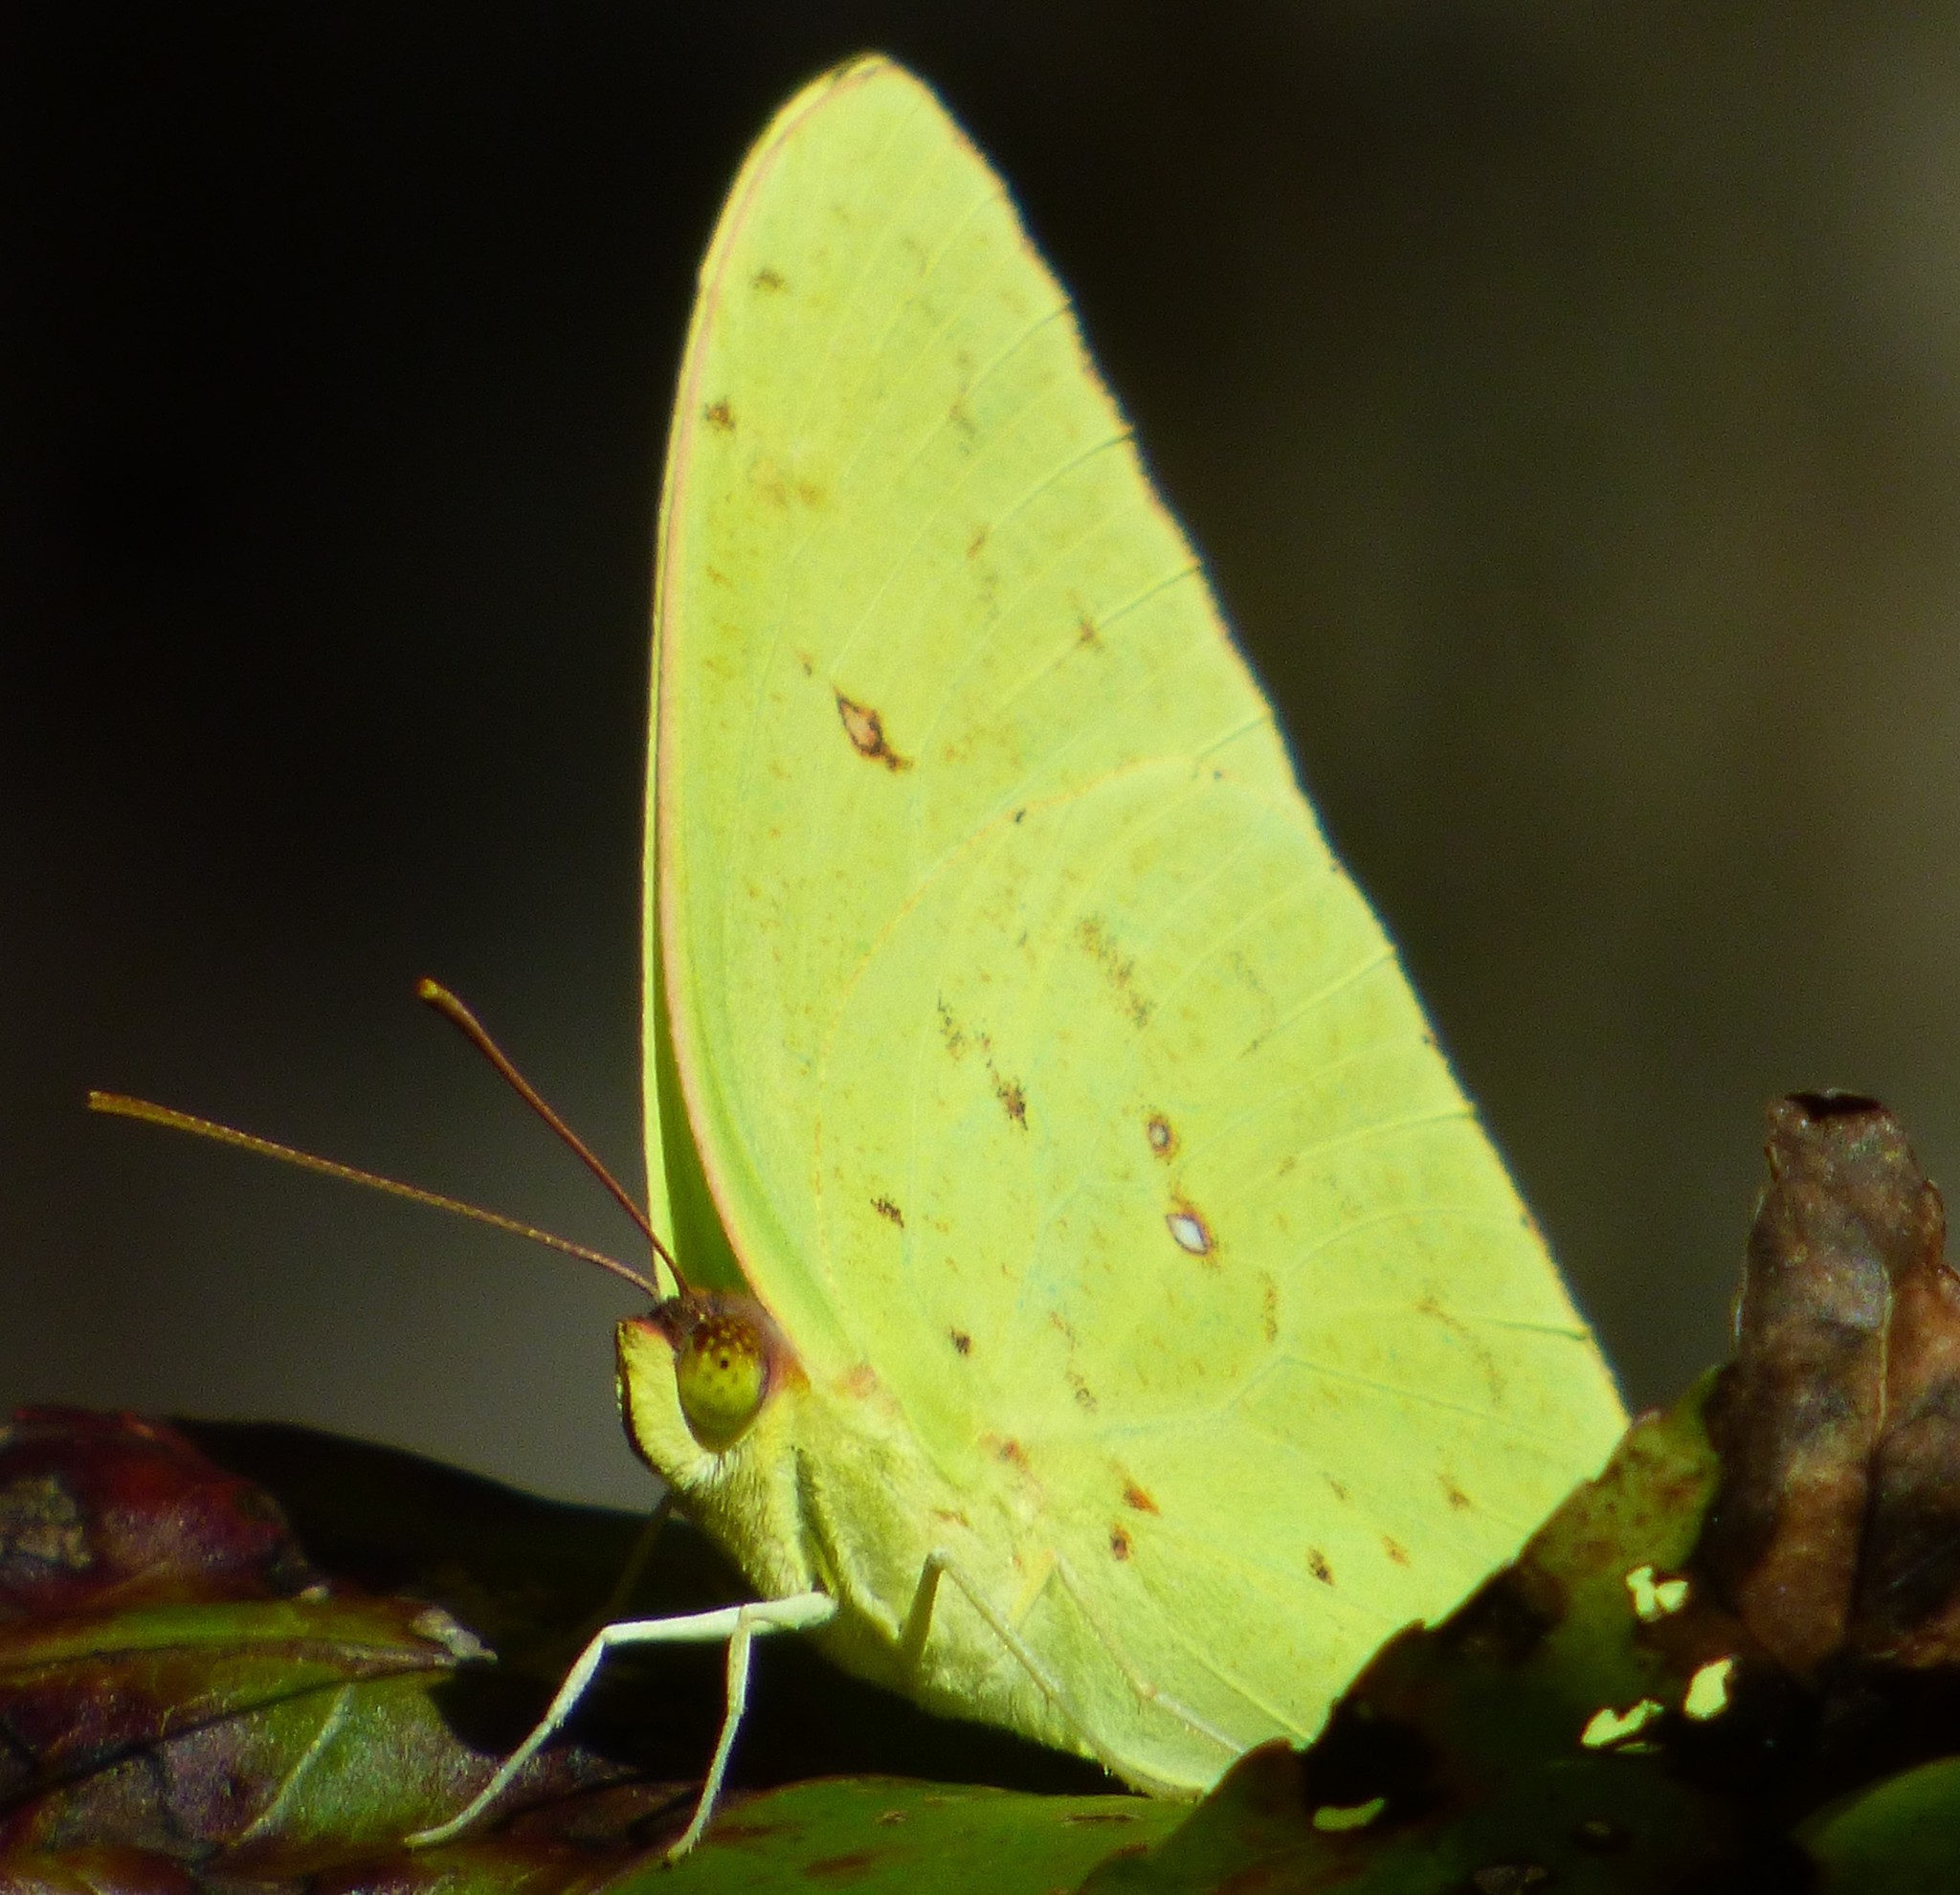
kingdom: Animalia
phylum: Arthropoda
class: Insecta
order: Lepidoptera
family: Pieridae
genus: Phoebis
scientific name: Phoebis sennae
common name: Cloudless sulphur
